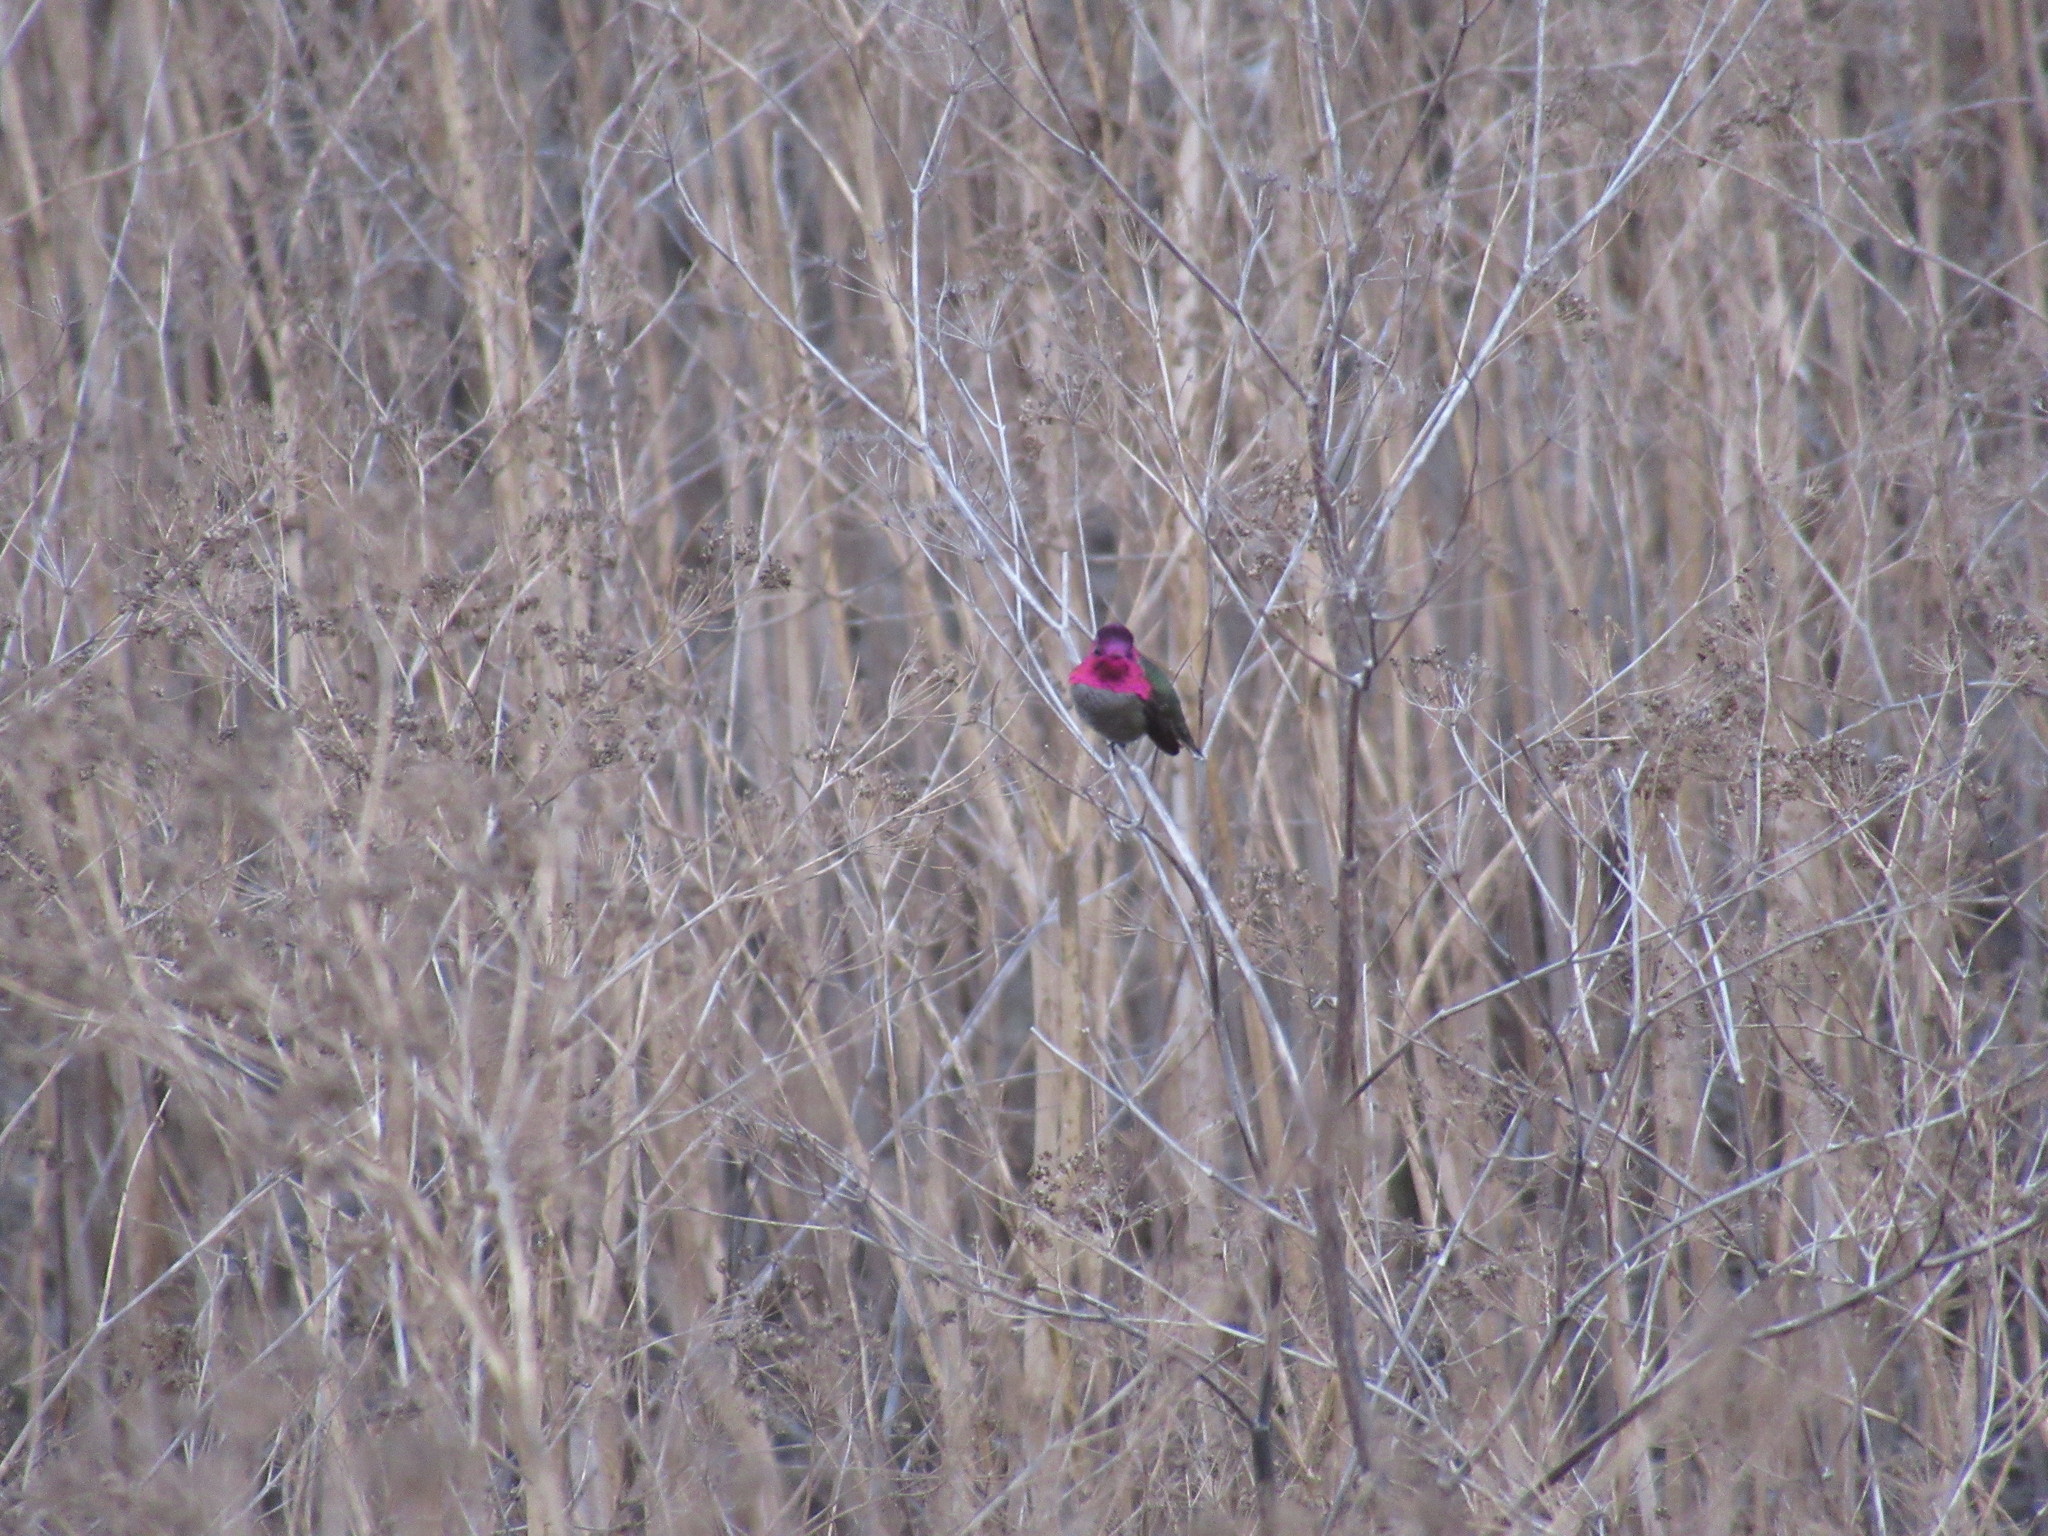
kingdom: Animalia
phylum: Chordata
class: Aves
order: Apodiformes
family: Trochilidae
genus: Calypte
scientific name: Calypte anna
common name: Anna's hummingbird
